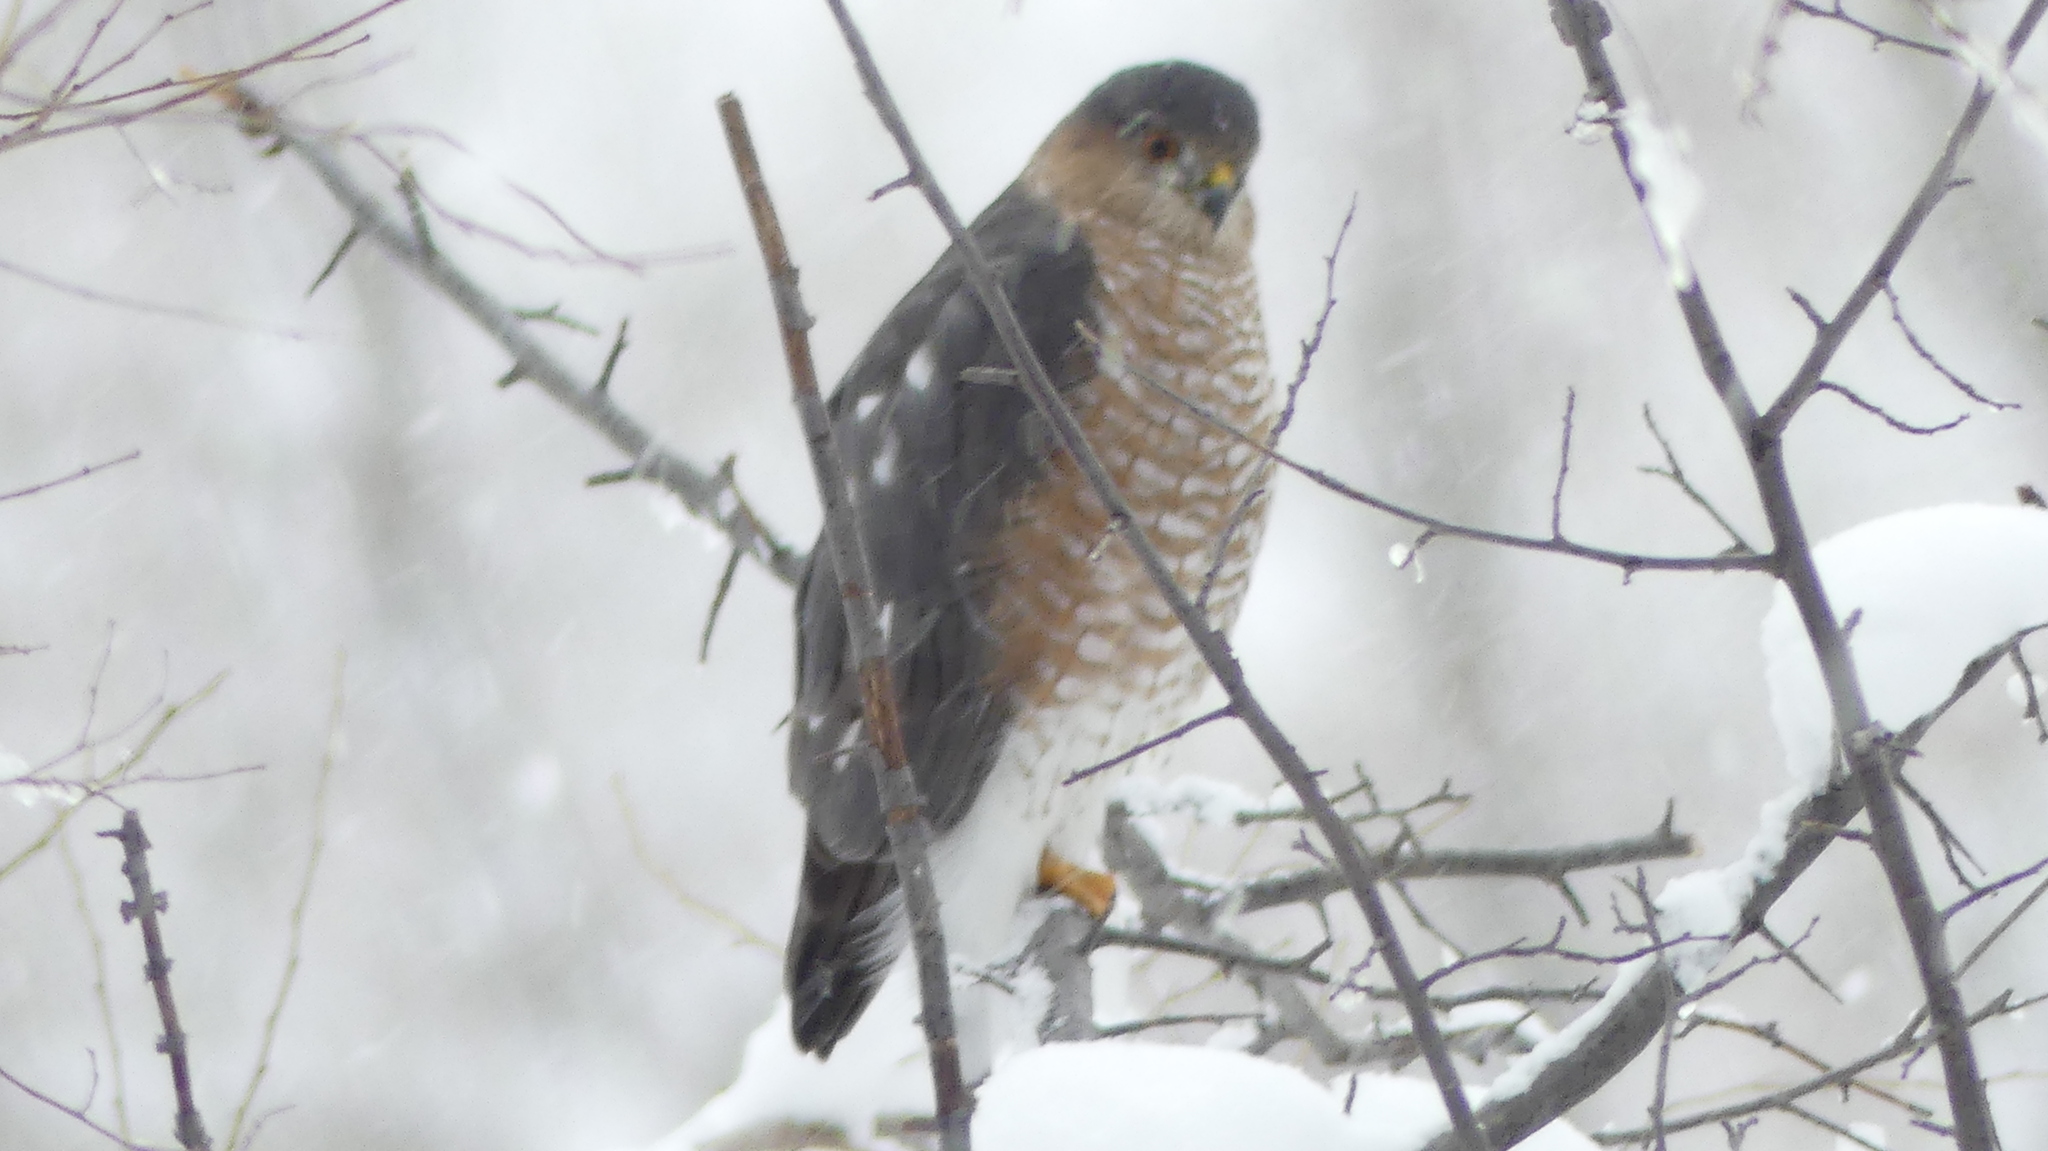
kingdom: Animalia
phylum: Chordata
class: Aves
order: Accipitriformes
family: Accipitridae
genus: Accipiter
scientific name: Accipiter striatus
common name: Sharp-shinned hawk
